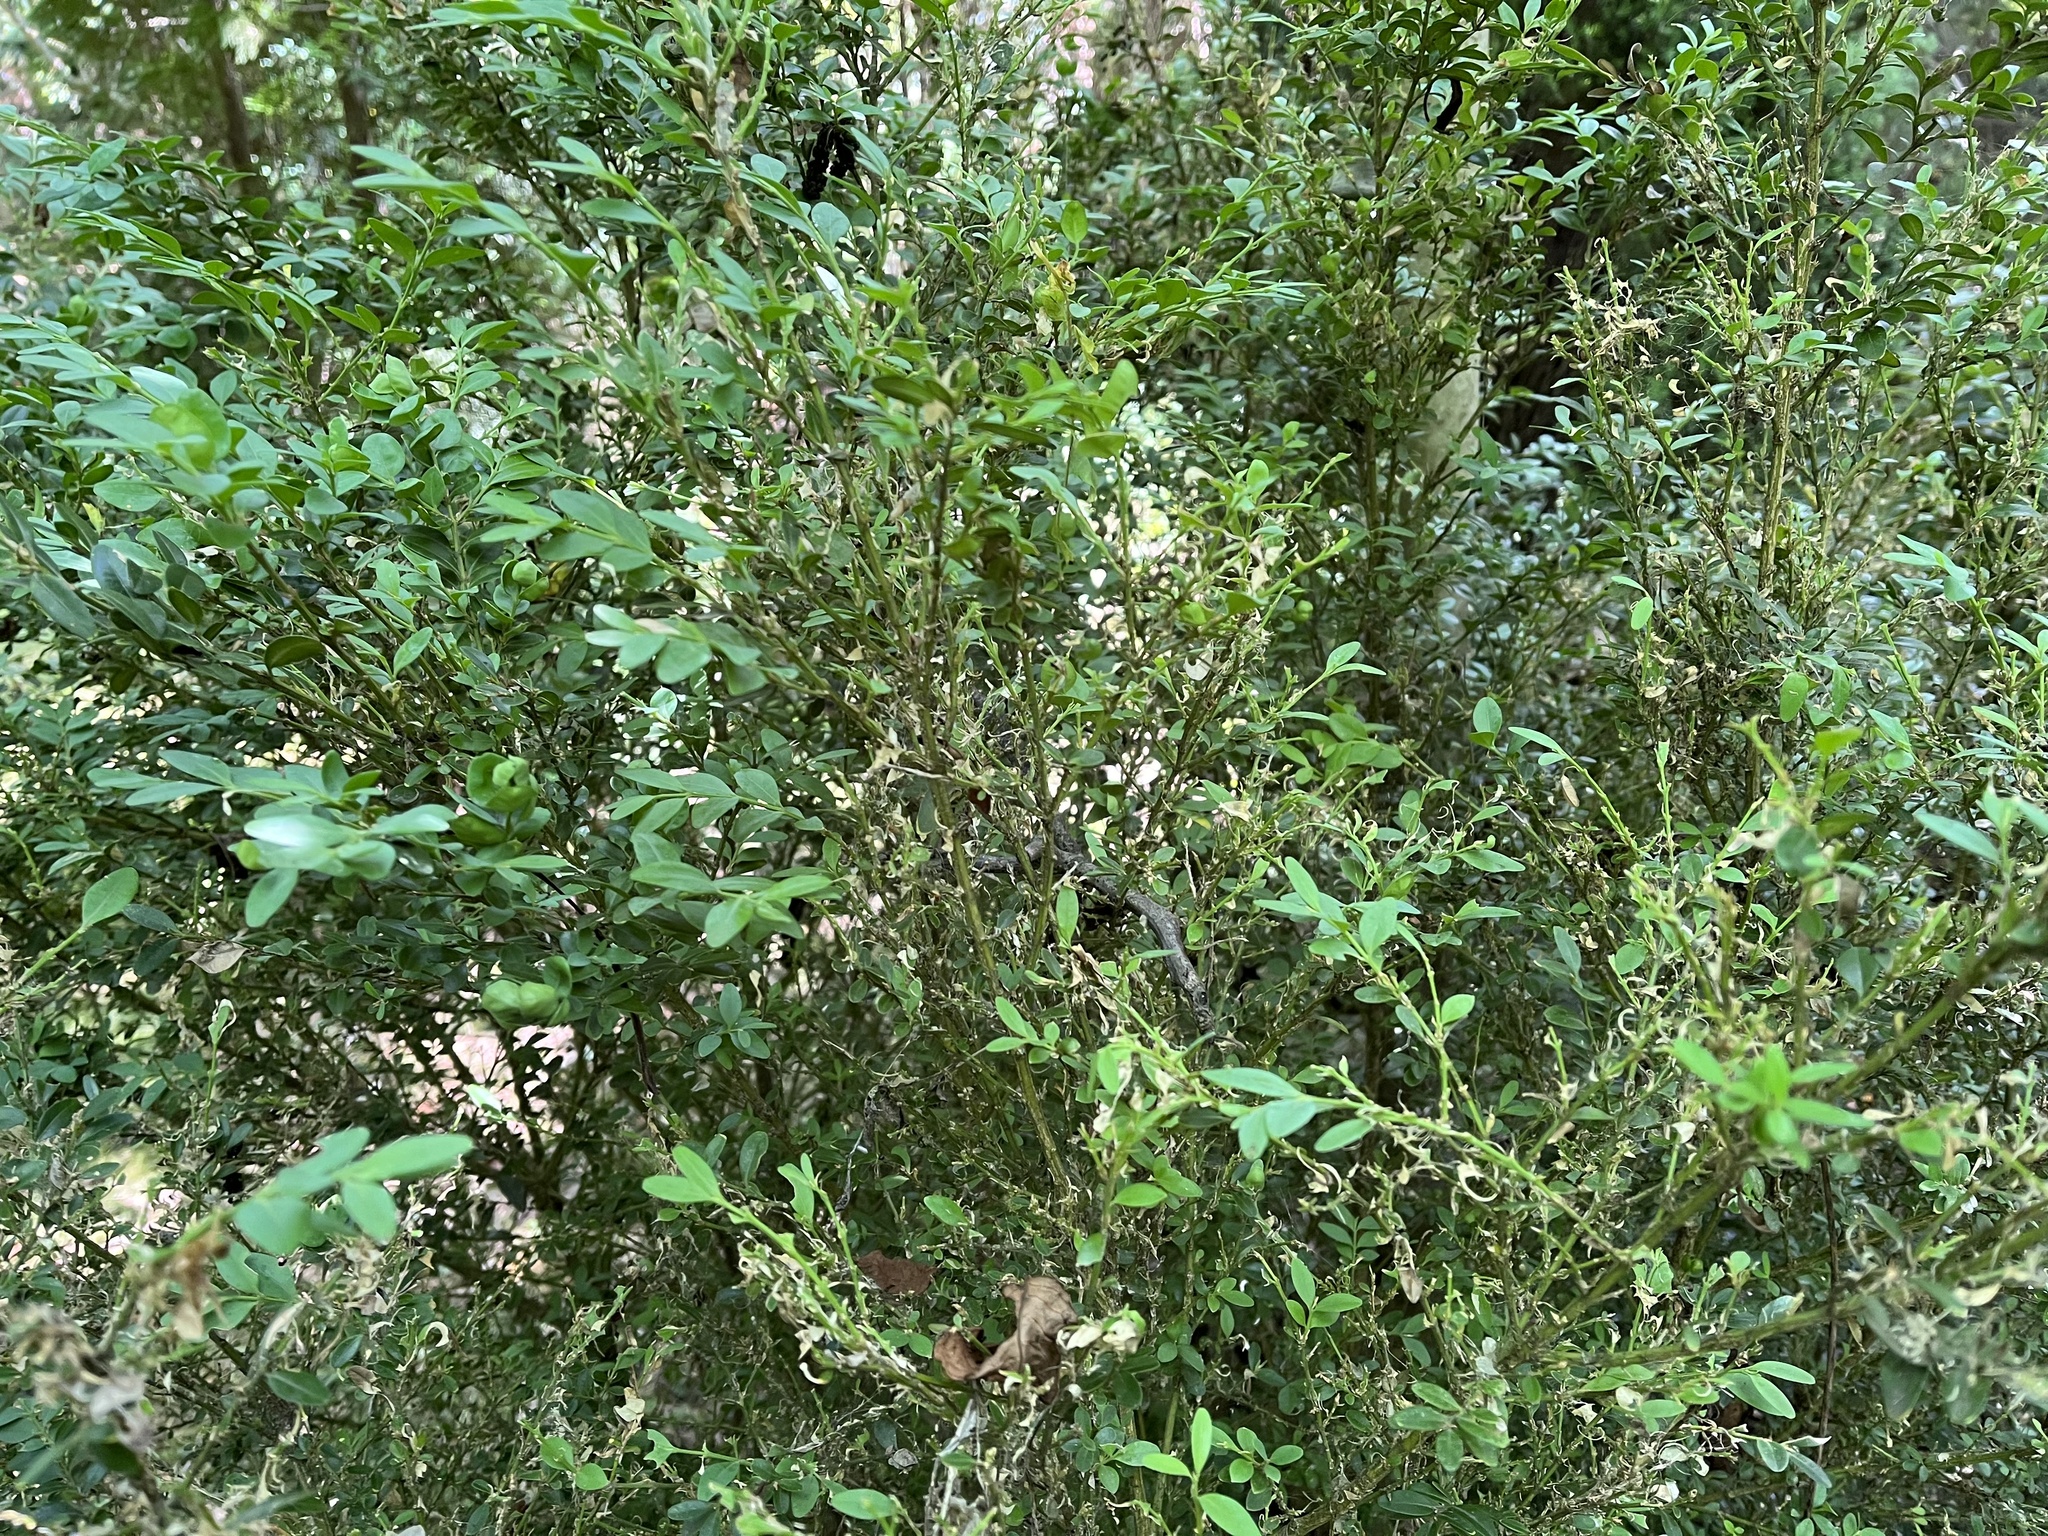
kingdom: Animalia
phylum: Arthropoda
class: Insecta
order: Lepidoptera
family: Crambidae
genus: Cydalima
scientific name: Cydalima perspectalis
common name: Box tree moth
